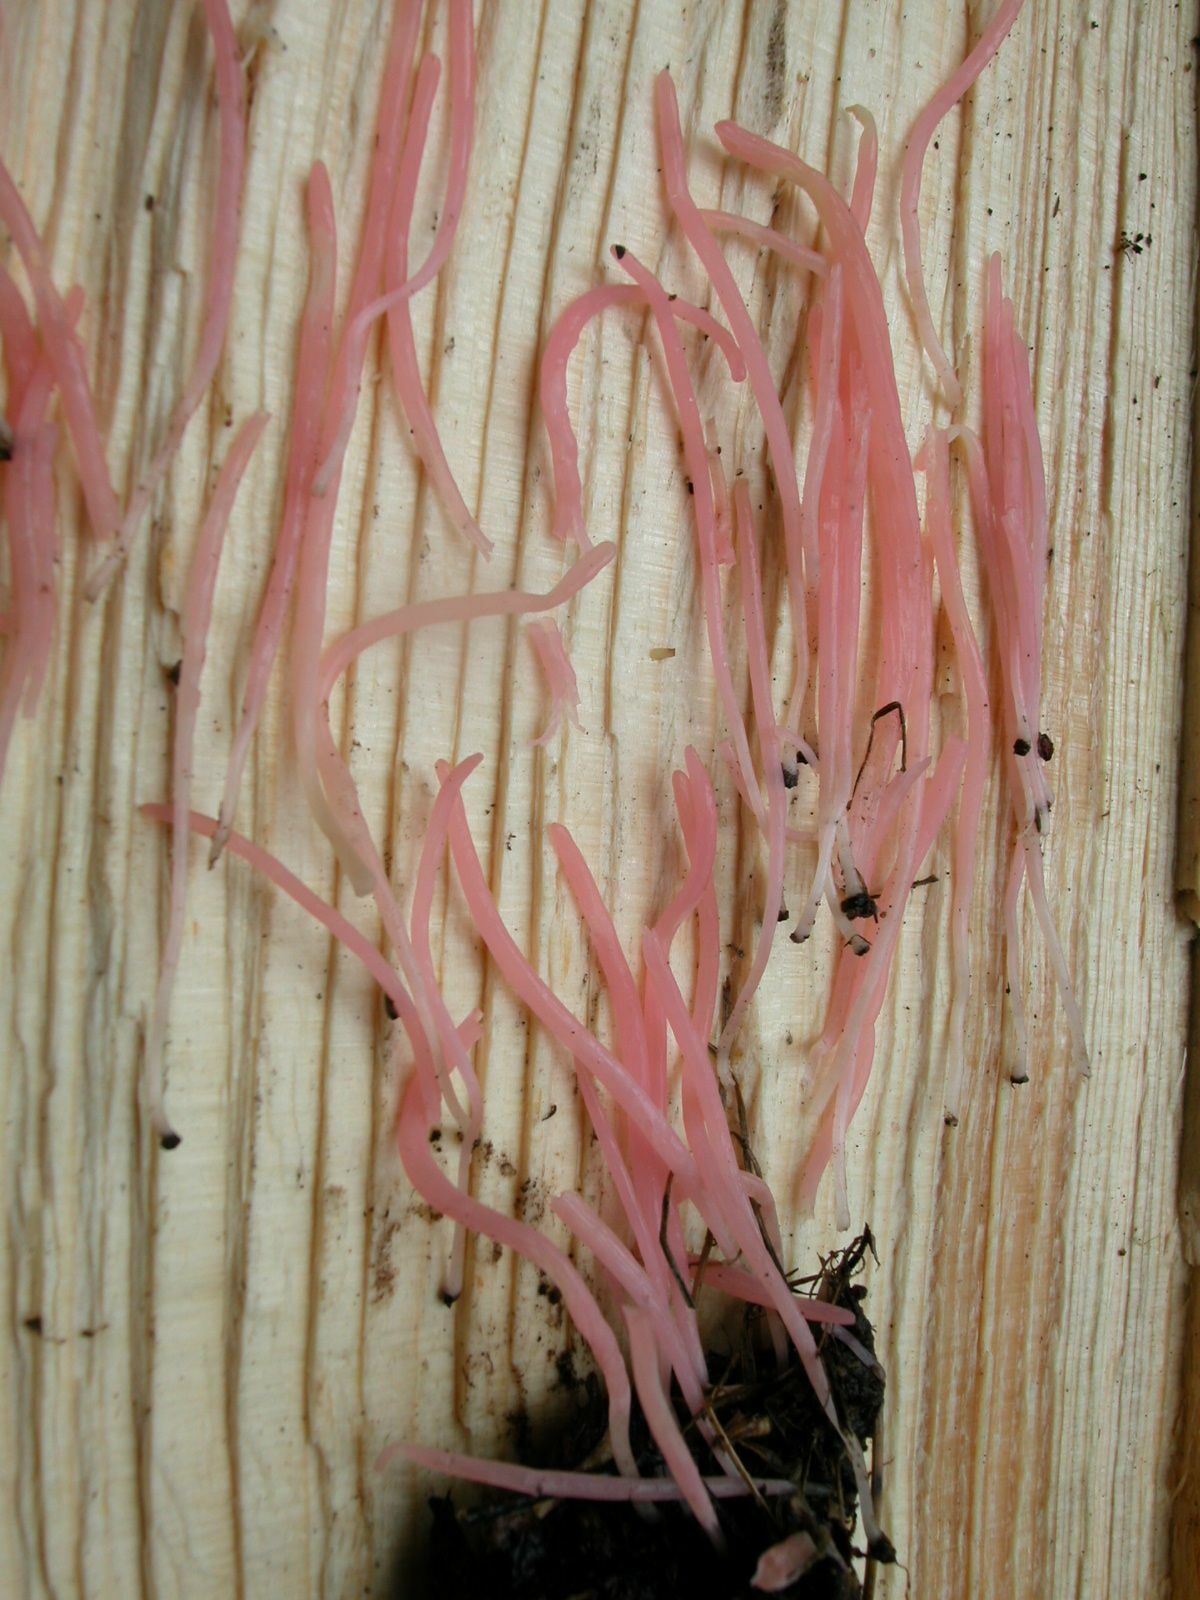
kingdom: Fungi
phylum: Basidiomycota
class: Agaricomycetes
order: Agaricales
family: Clavariaceae
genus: Clavaria
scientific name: Clavaria rosea
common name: Rose spindles
